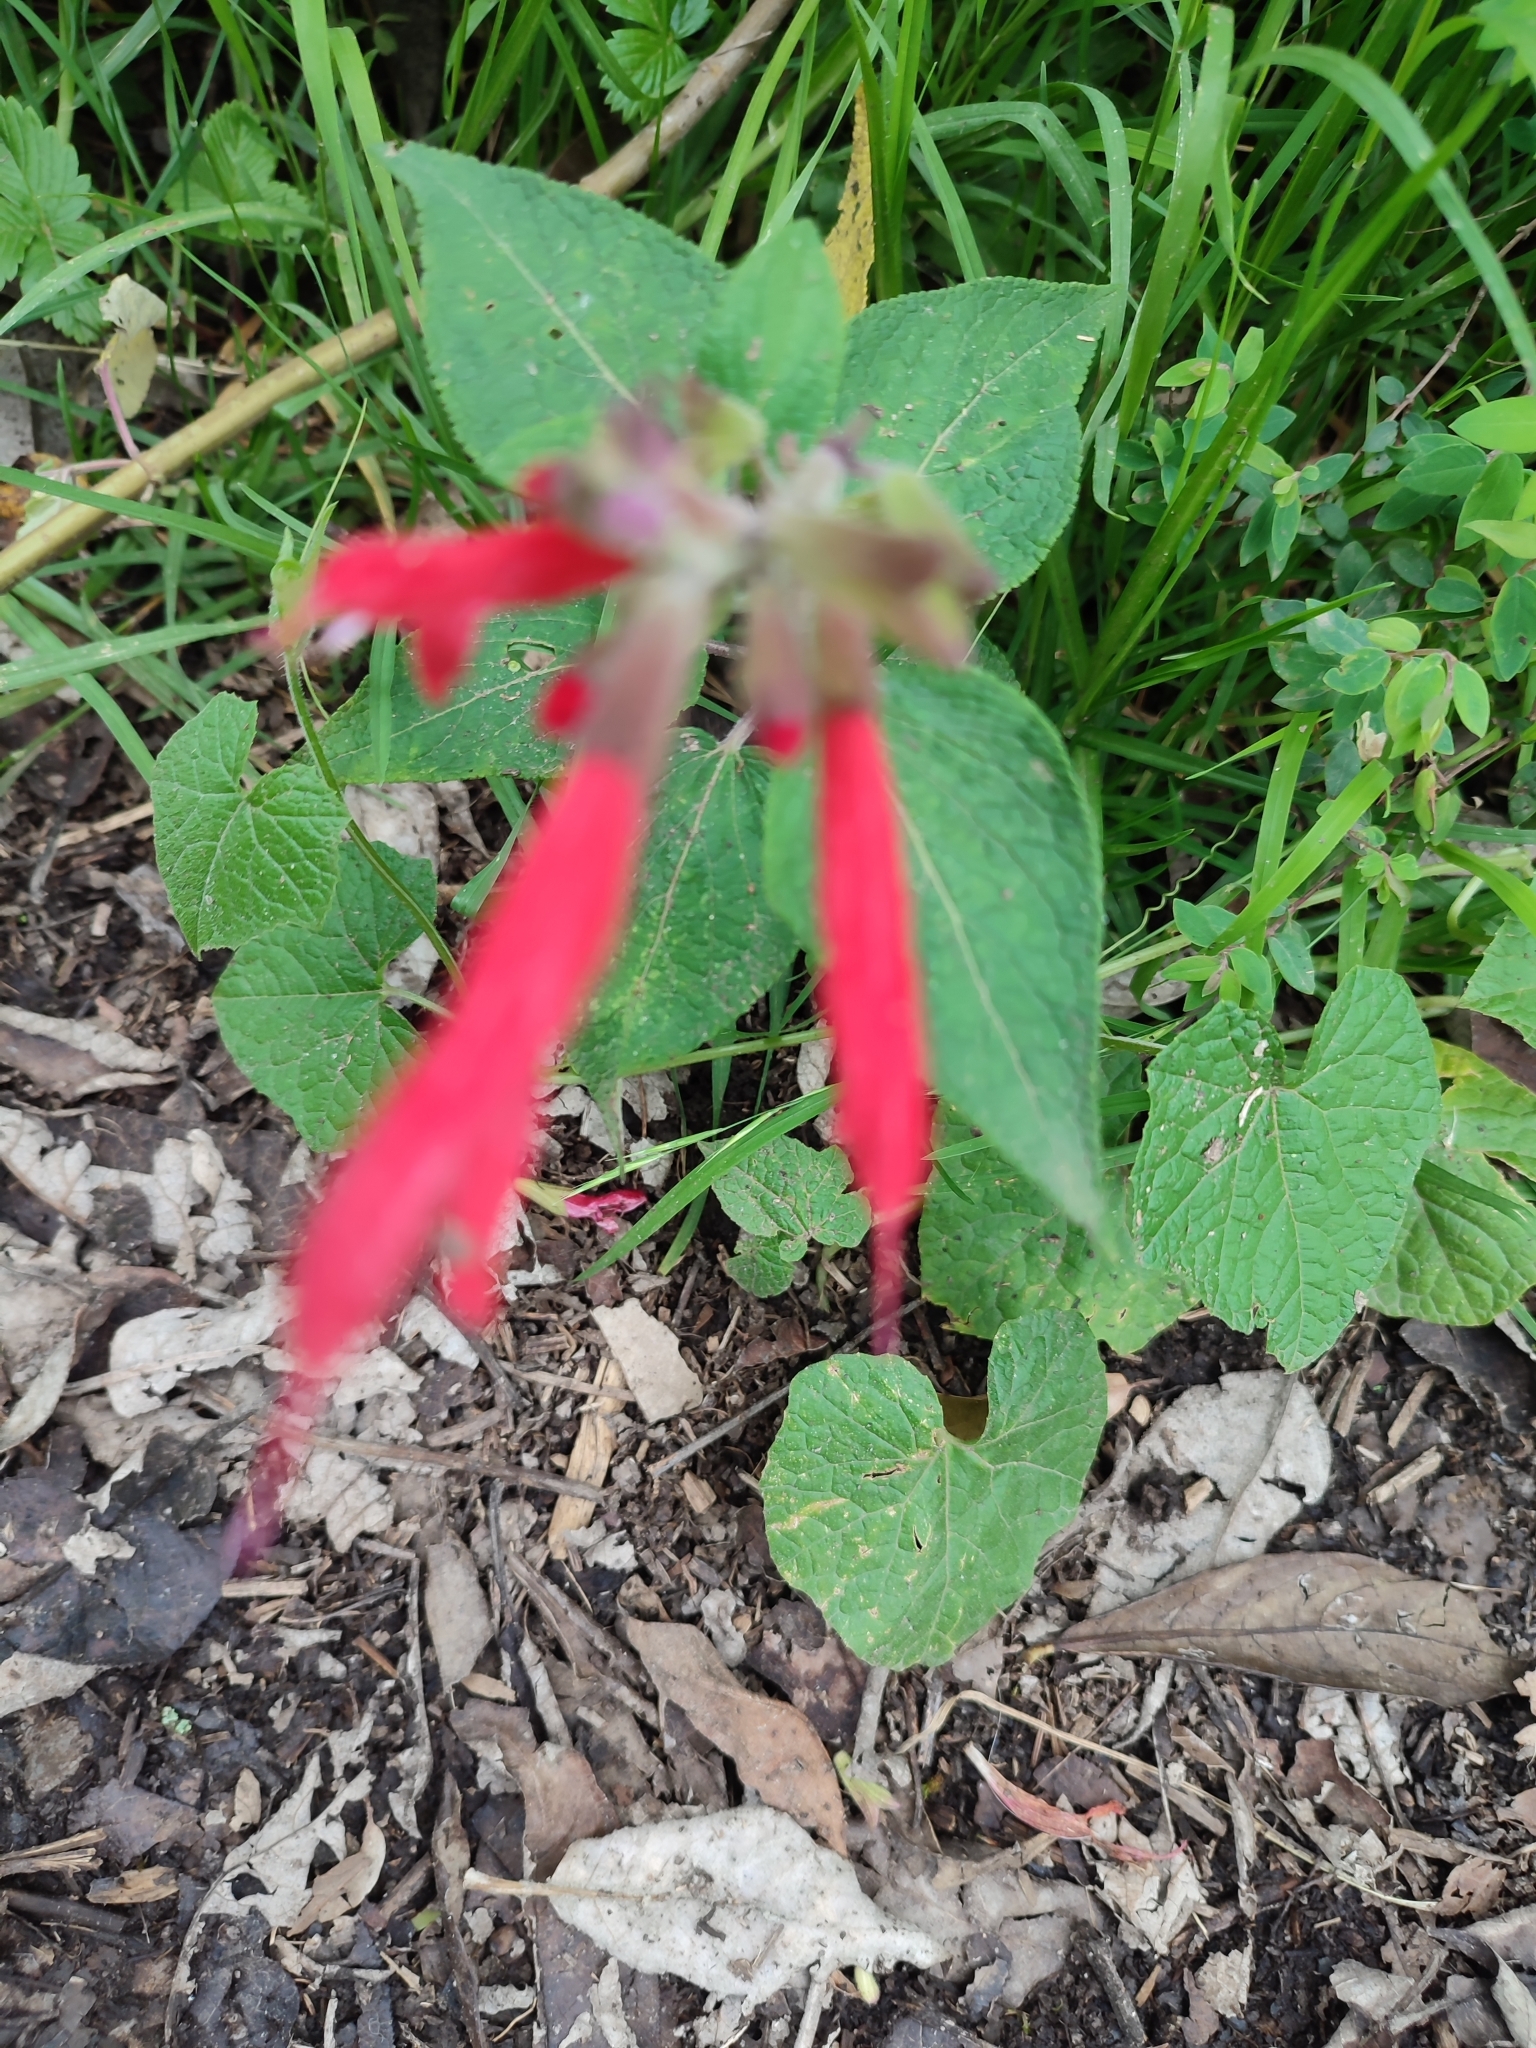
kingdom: Plantae
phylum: Tracheophyta
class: Magnoliopsida
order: Lamiales
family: Lamiaceae
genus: Salvia
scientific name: Salvia fulgens
